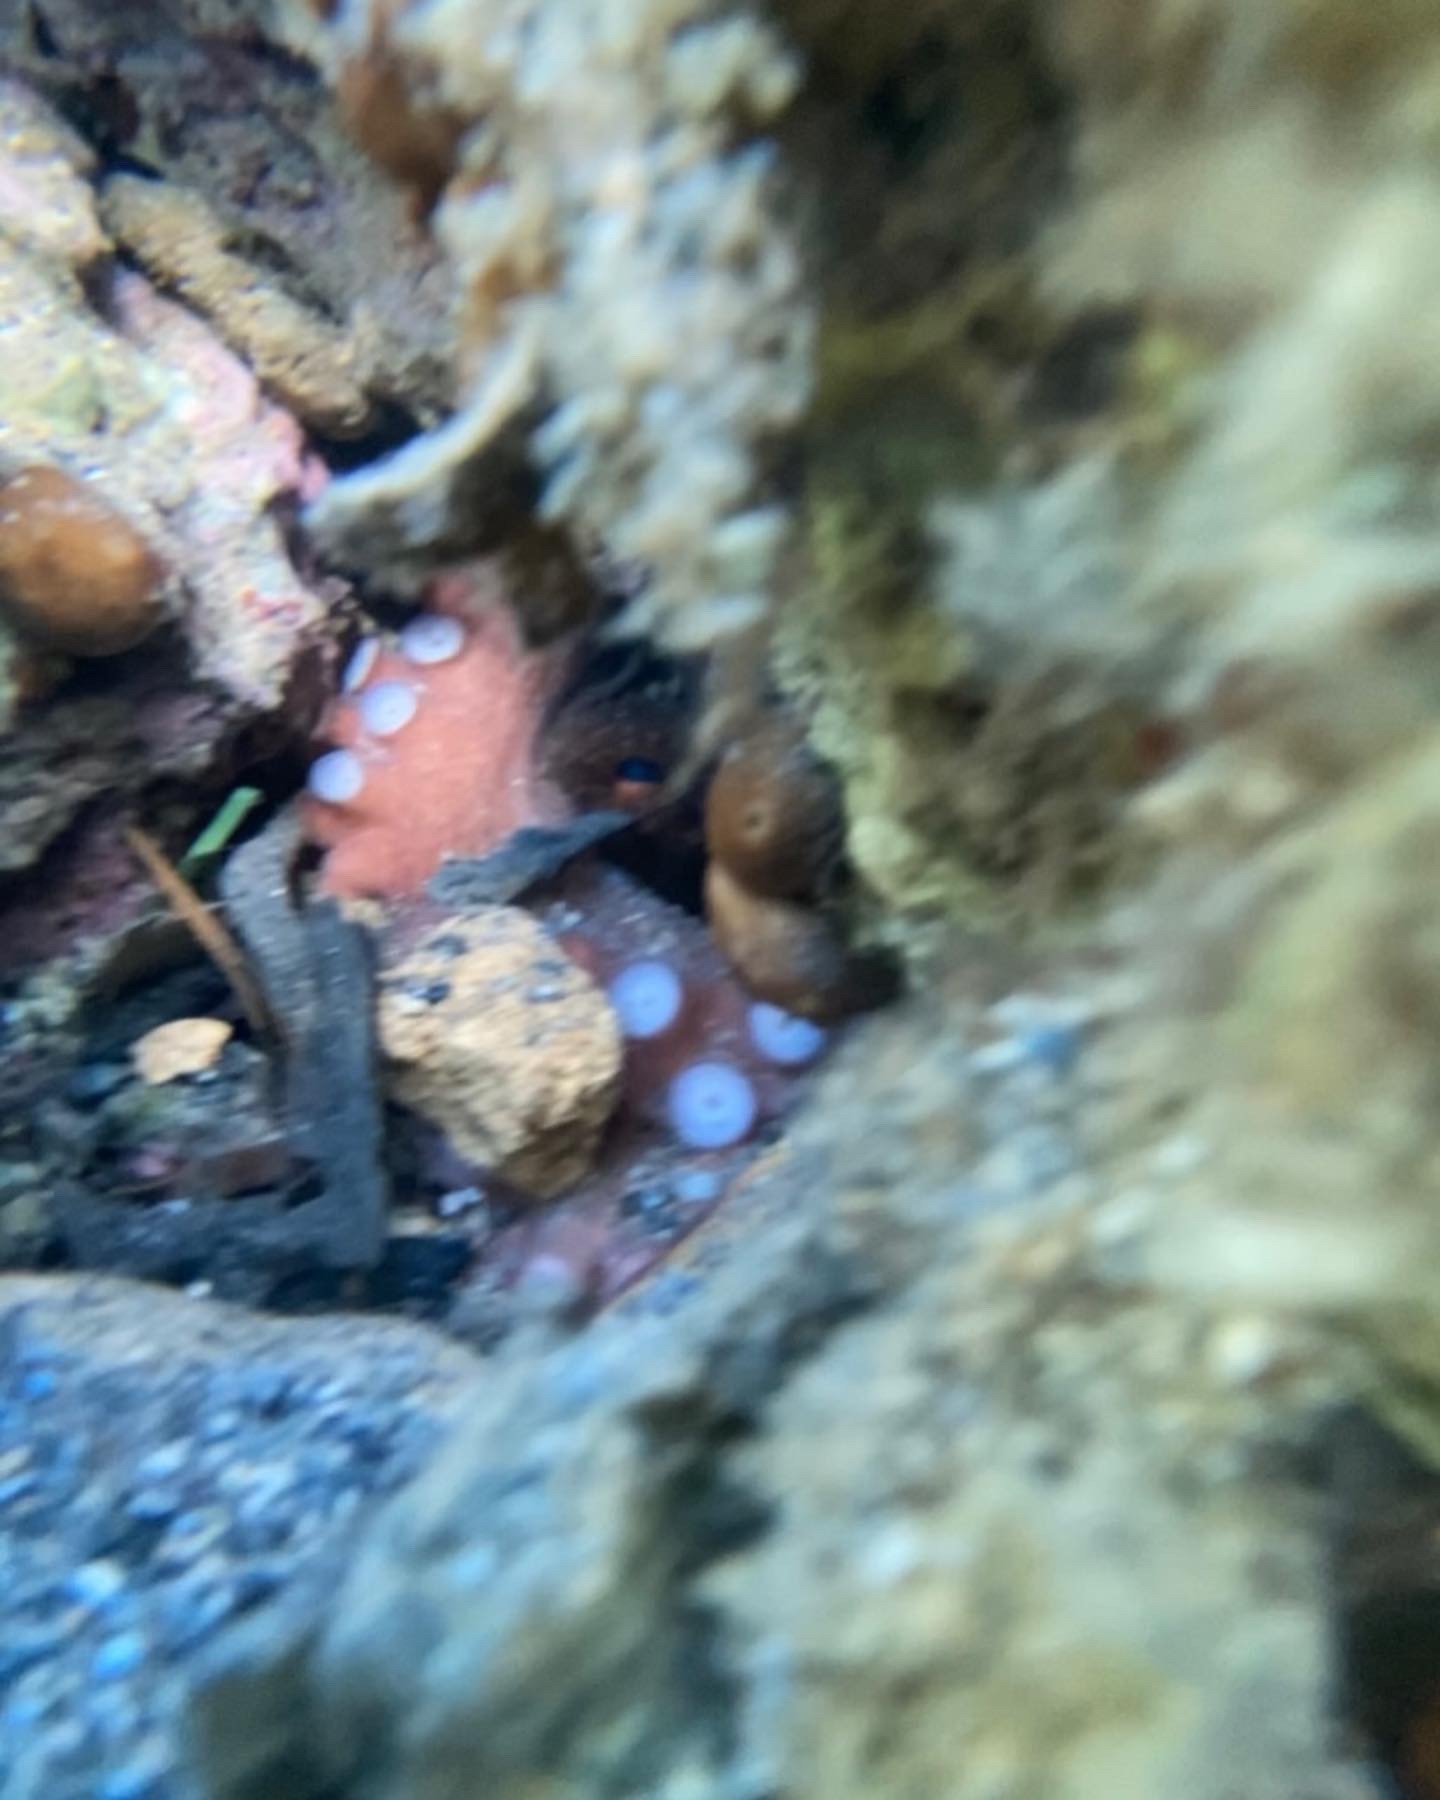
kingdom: Animalia
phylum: Mollusca
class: Cephalopoda
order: Octopoda
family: Octopodidae
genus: Octopus
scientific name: Octopus vulgaris
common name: Common octopus
